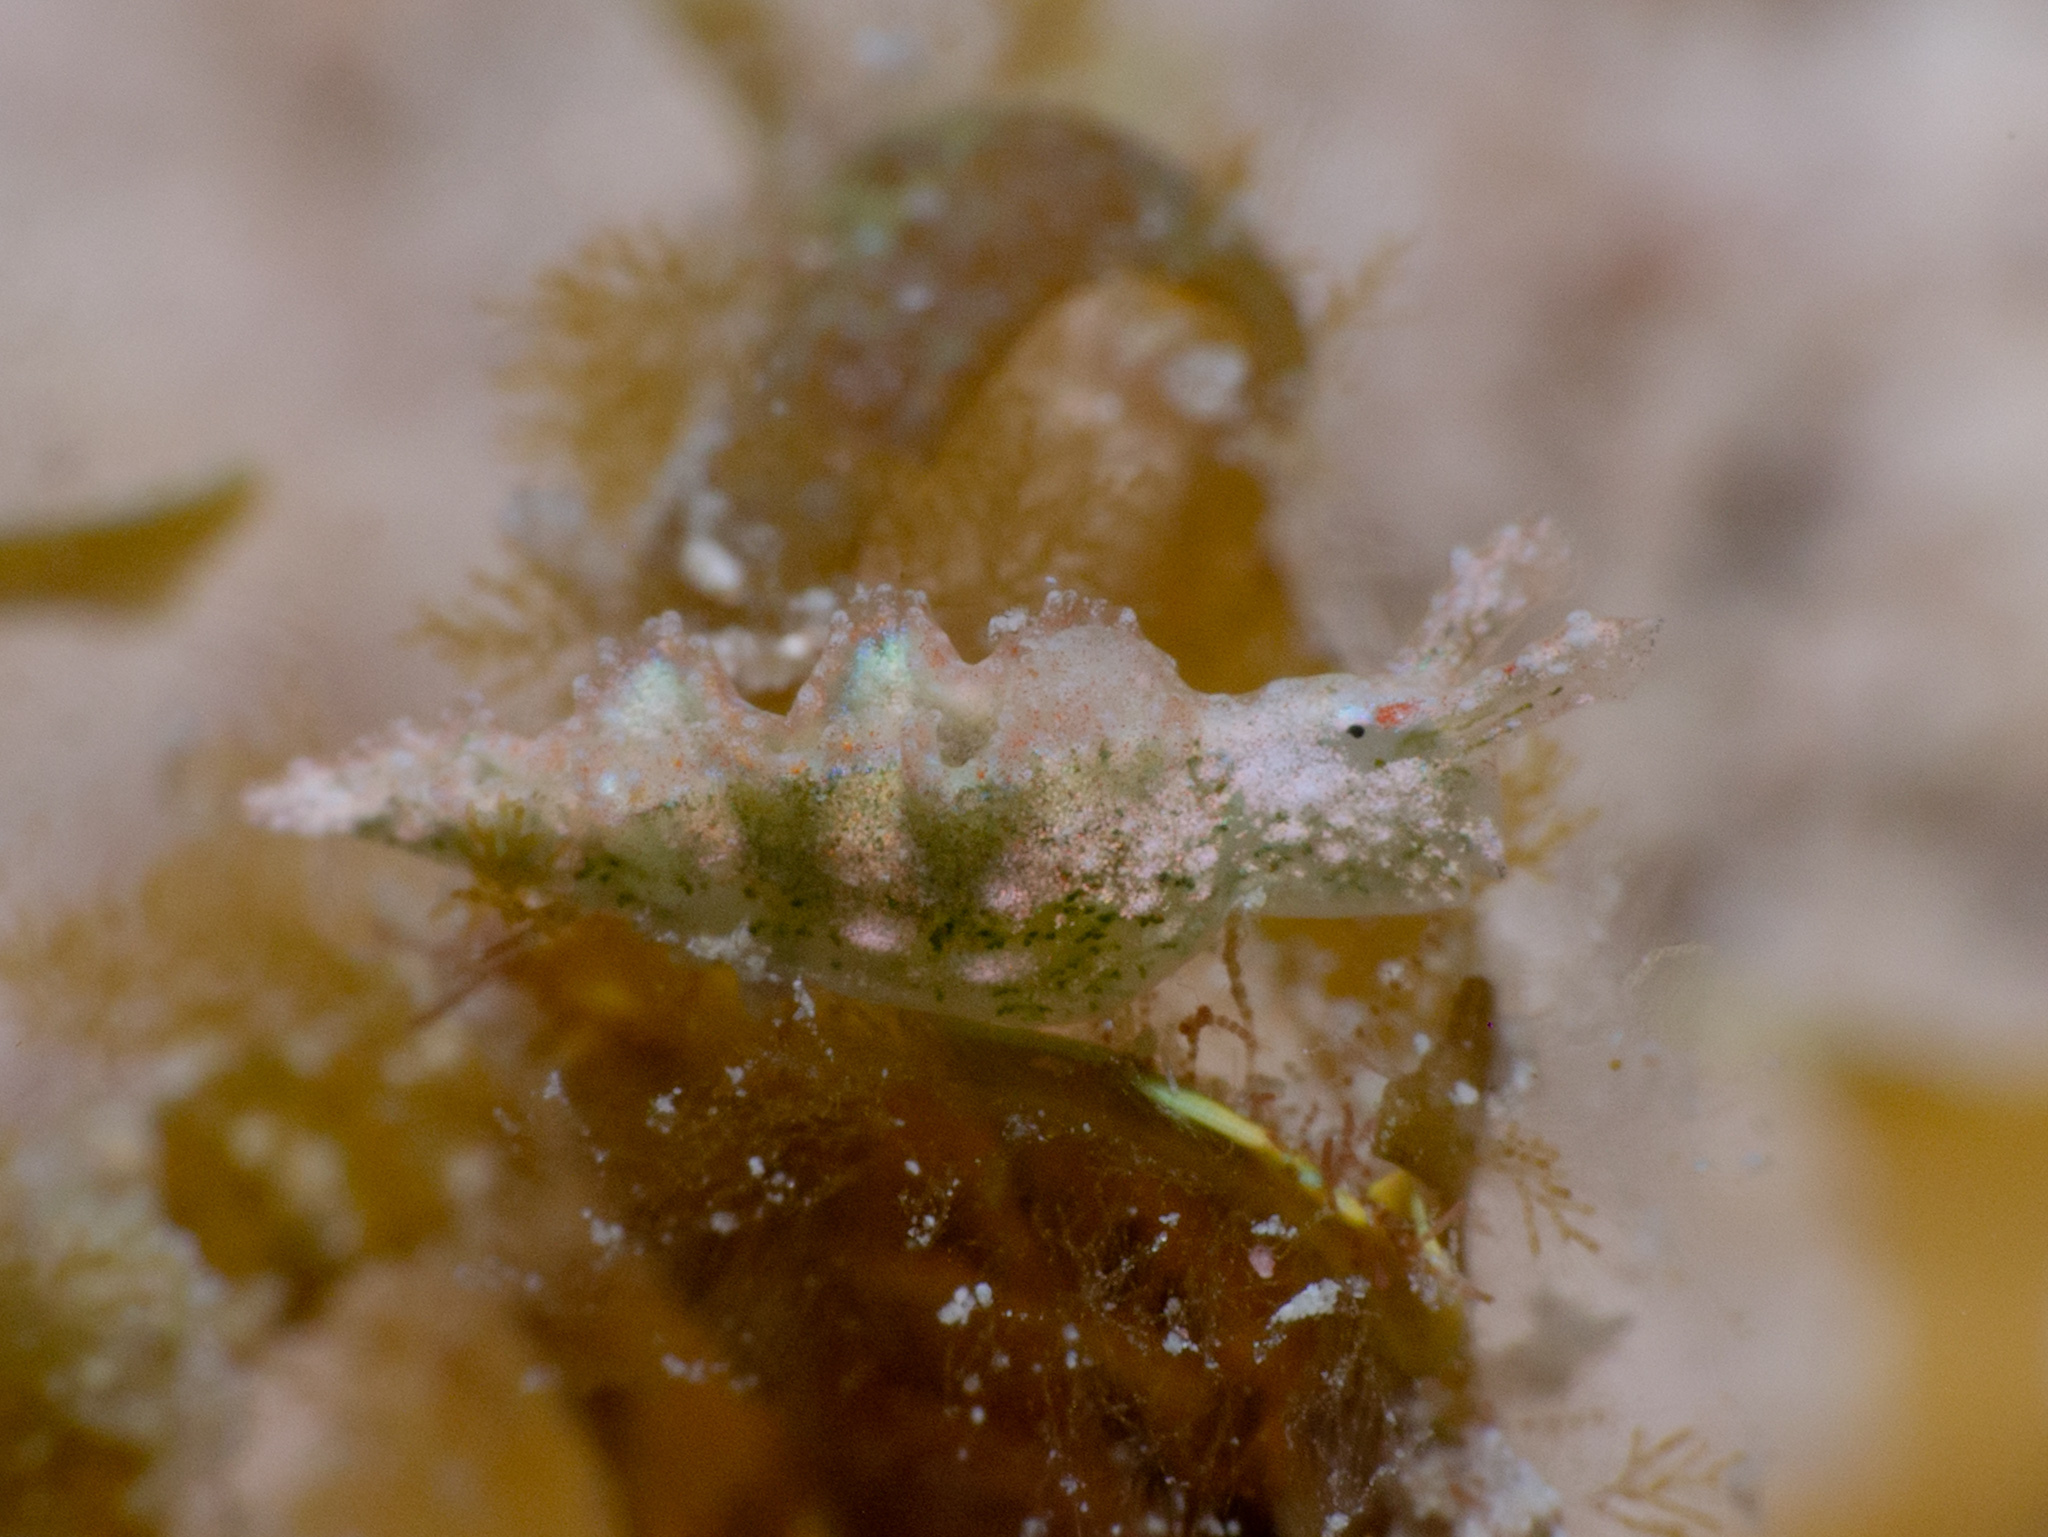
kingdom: Animalia
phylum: Mollusca
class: Gastropoda
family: Plakobranchidae
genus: Elysia
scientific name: Elysia ellenae
